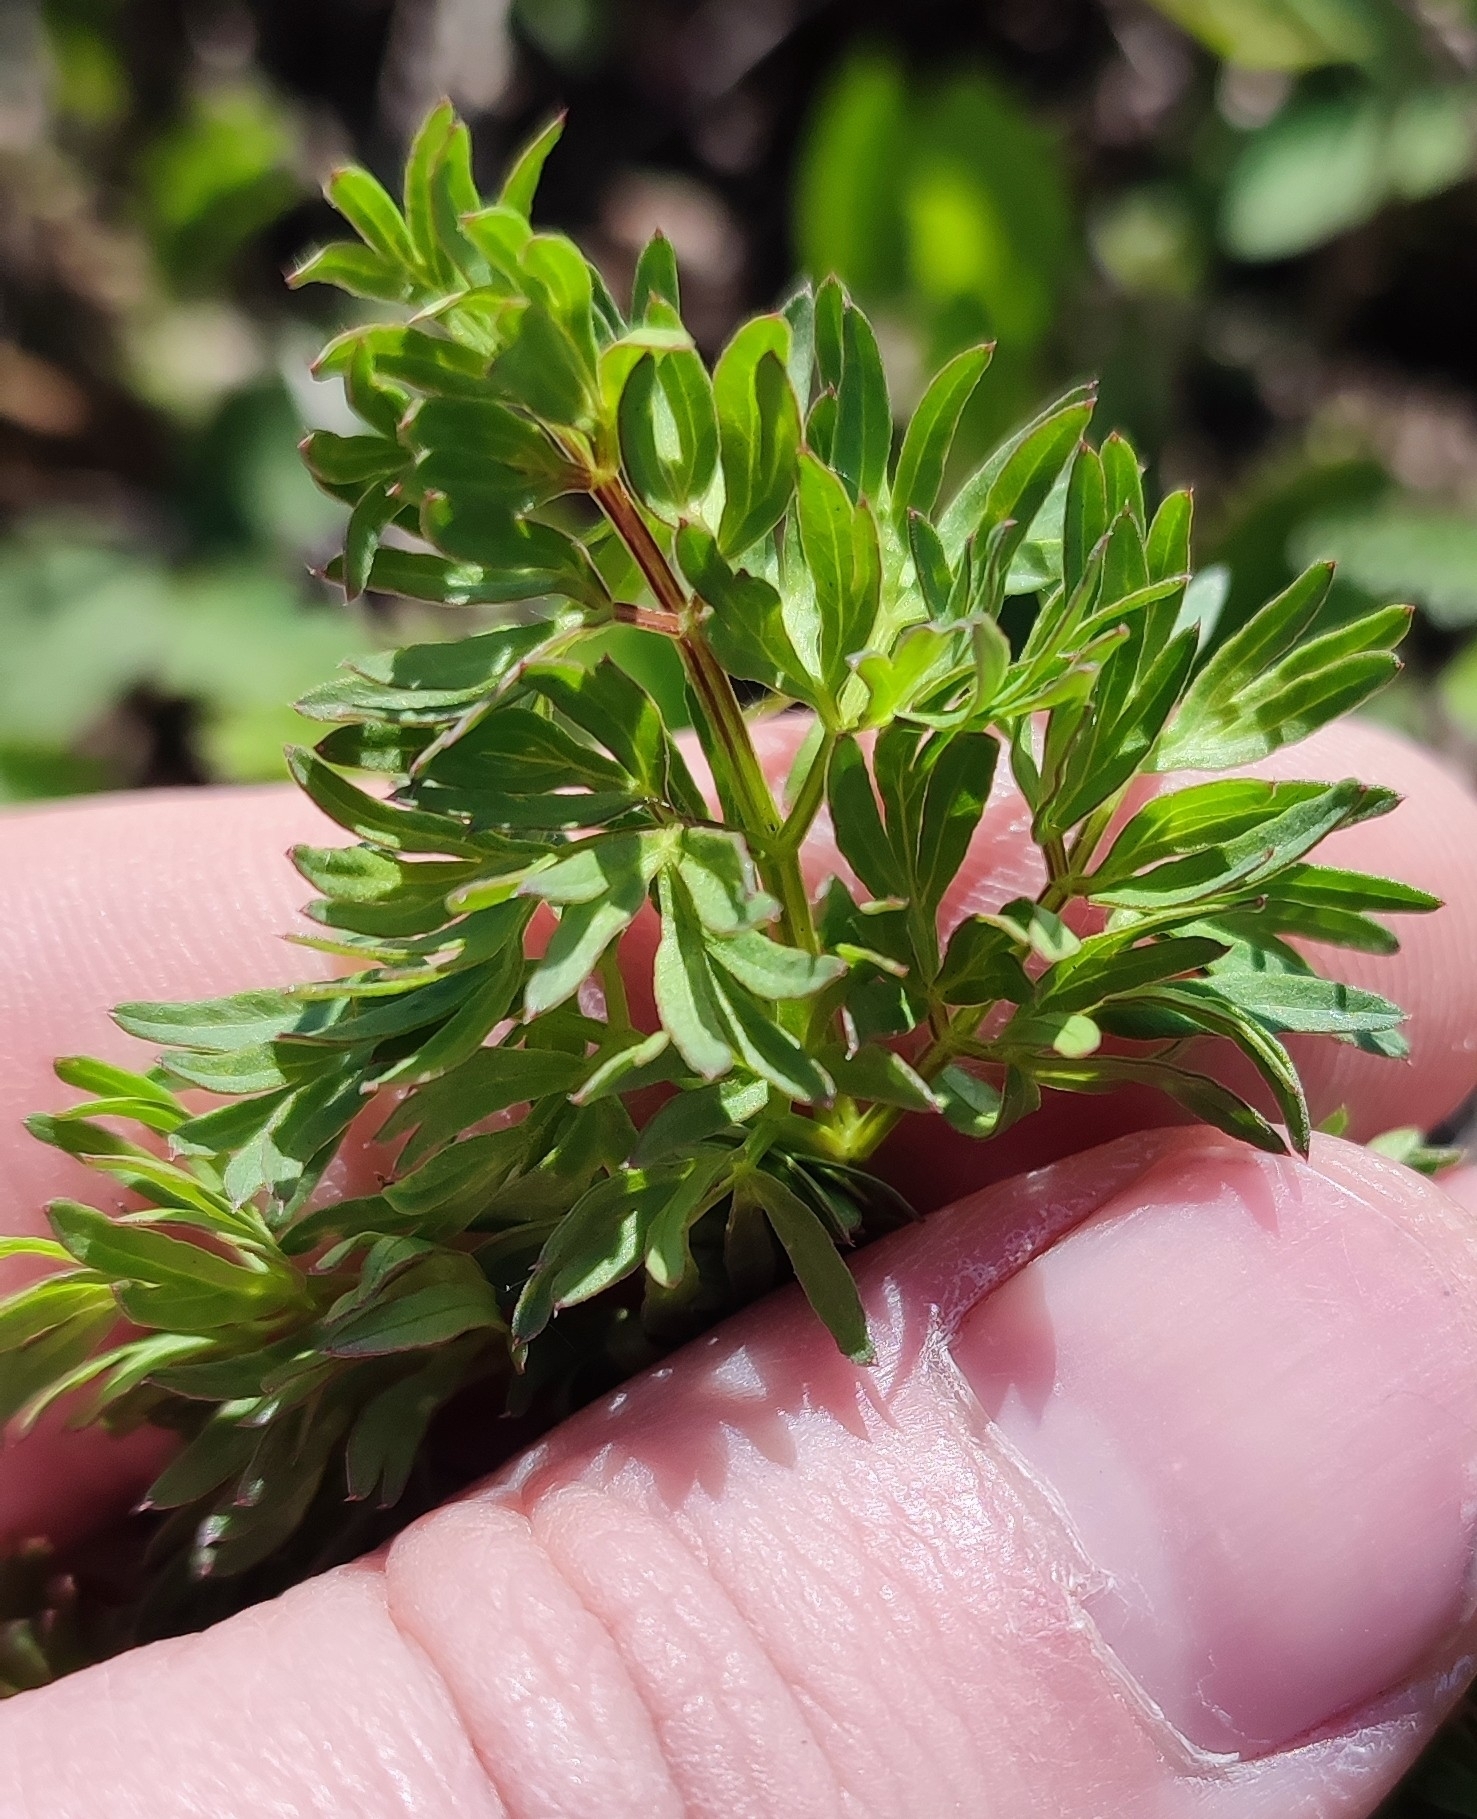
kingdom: Plantae
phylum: Tracheophyta
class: Magnoliopsida
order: Apiales
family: Apiaceae
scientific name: Apiaceae
